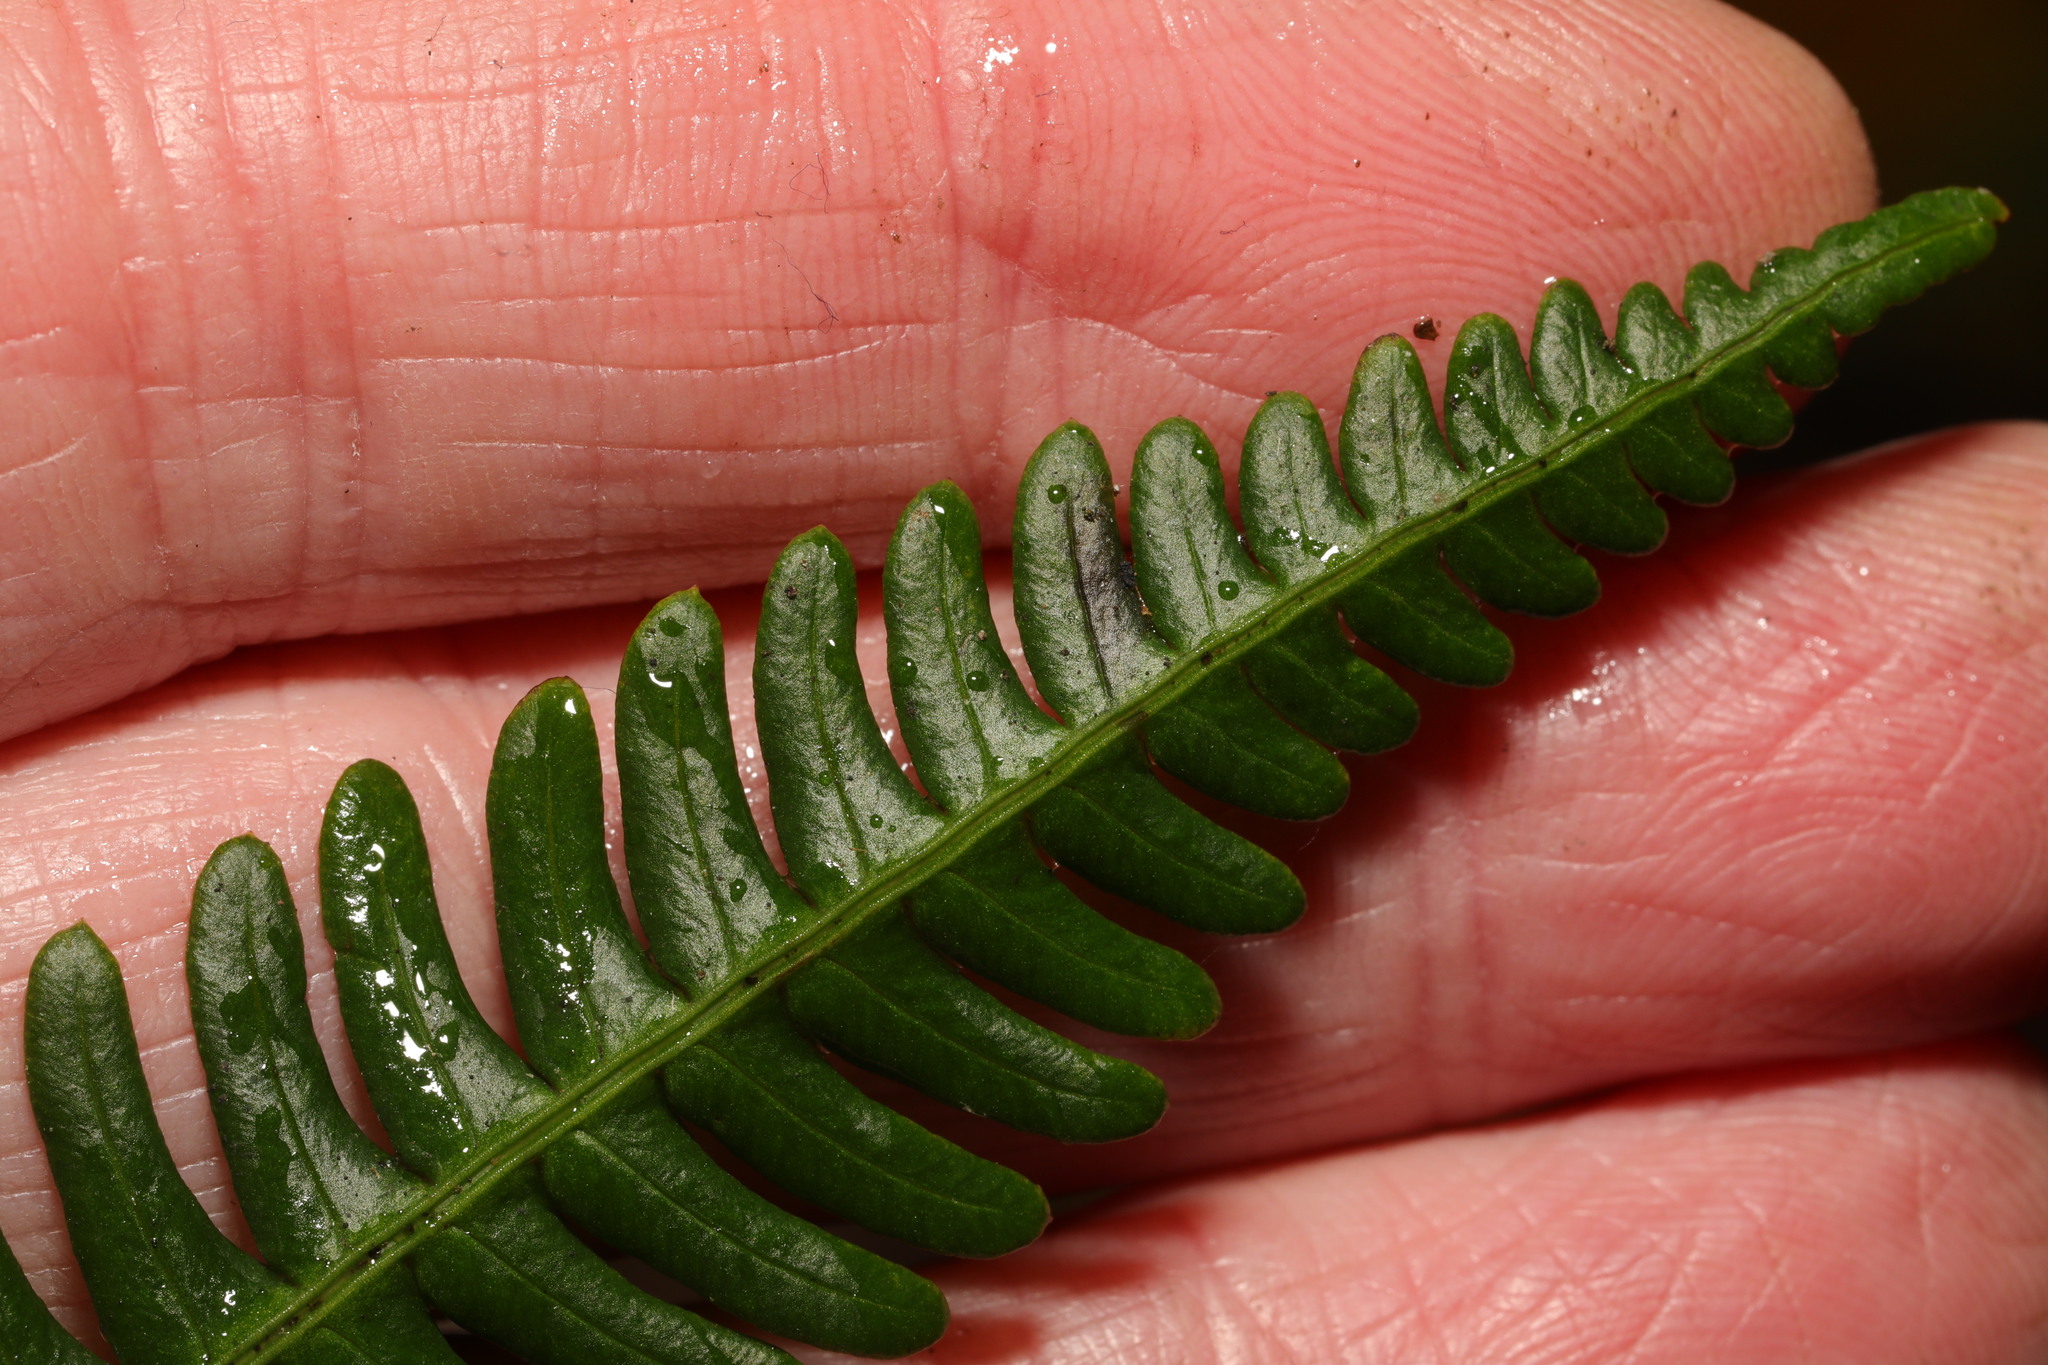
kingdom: Plantae
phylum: Tracheophyta
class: Polypodiopsida
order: Polypodiales
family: Blechnaceae
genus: Struthiopteris
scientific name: Struthiopteris spicant
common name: Deer fern
